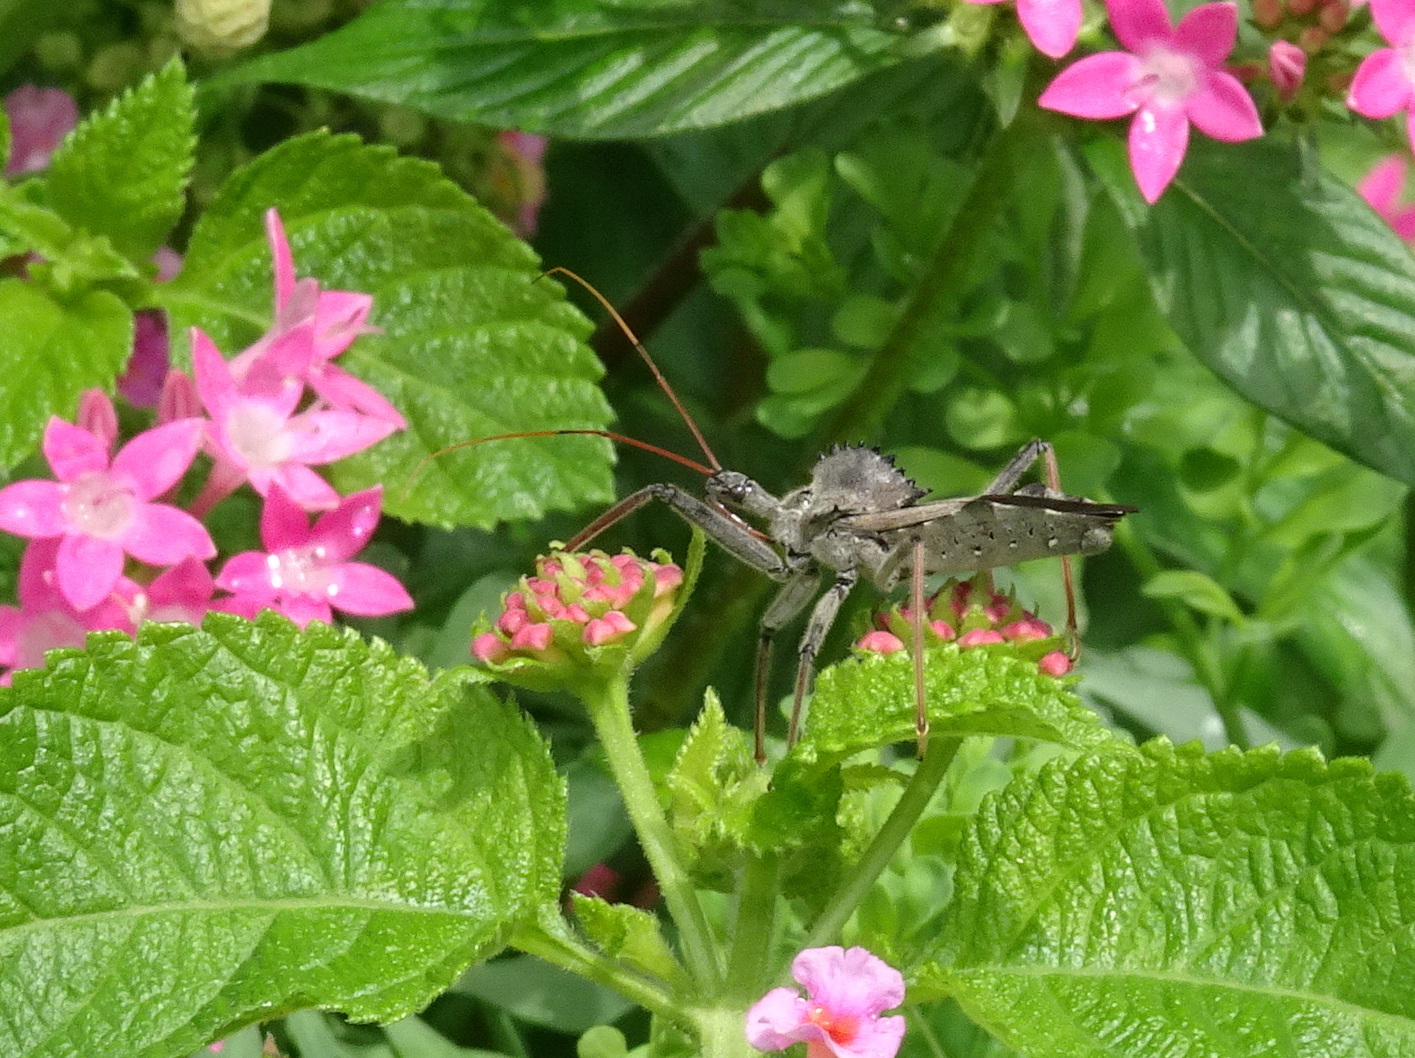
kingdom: Animalia
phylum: Arthropoda
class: Insecta
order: Hemiptera
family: Reduviidae
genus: Arilus
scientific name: Arilus cristatus
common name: North american wheel bug
